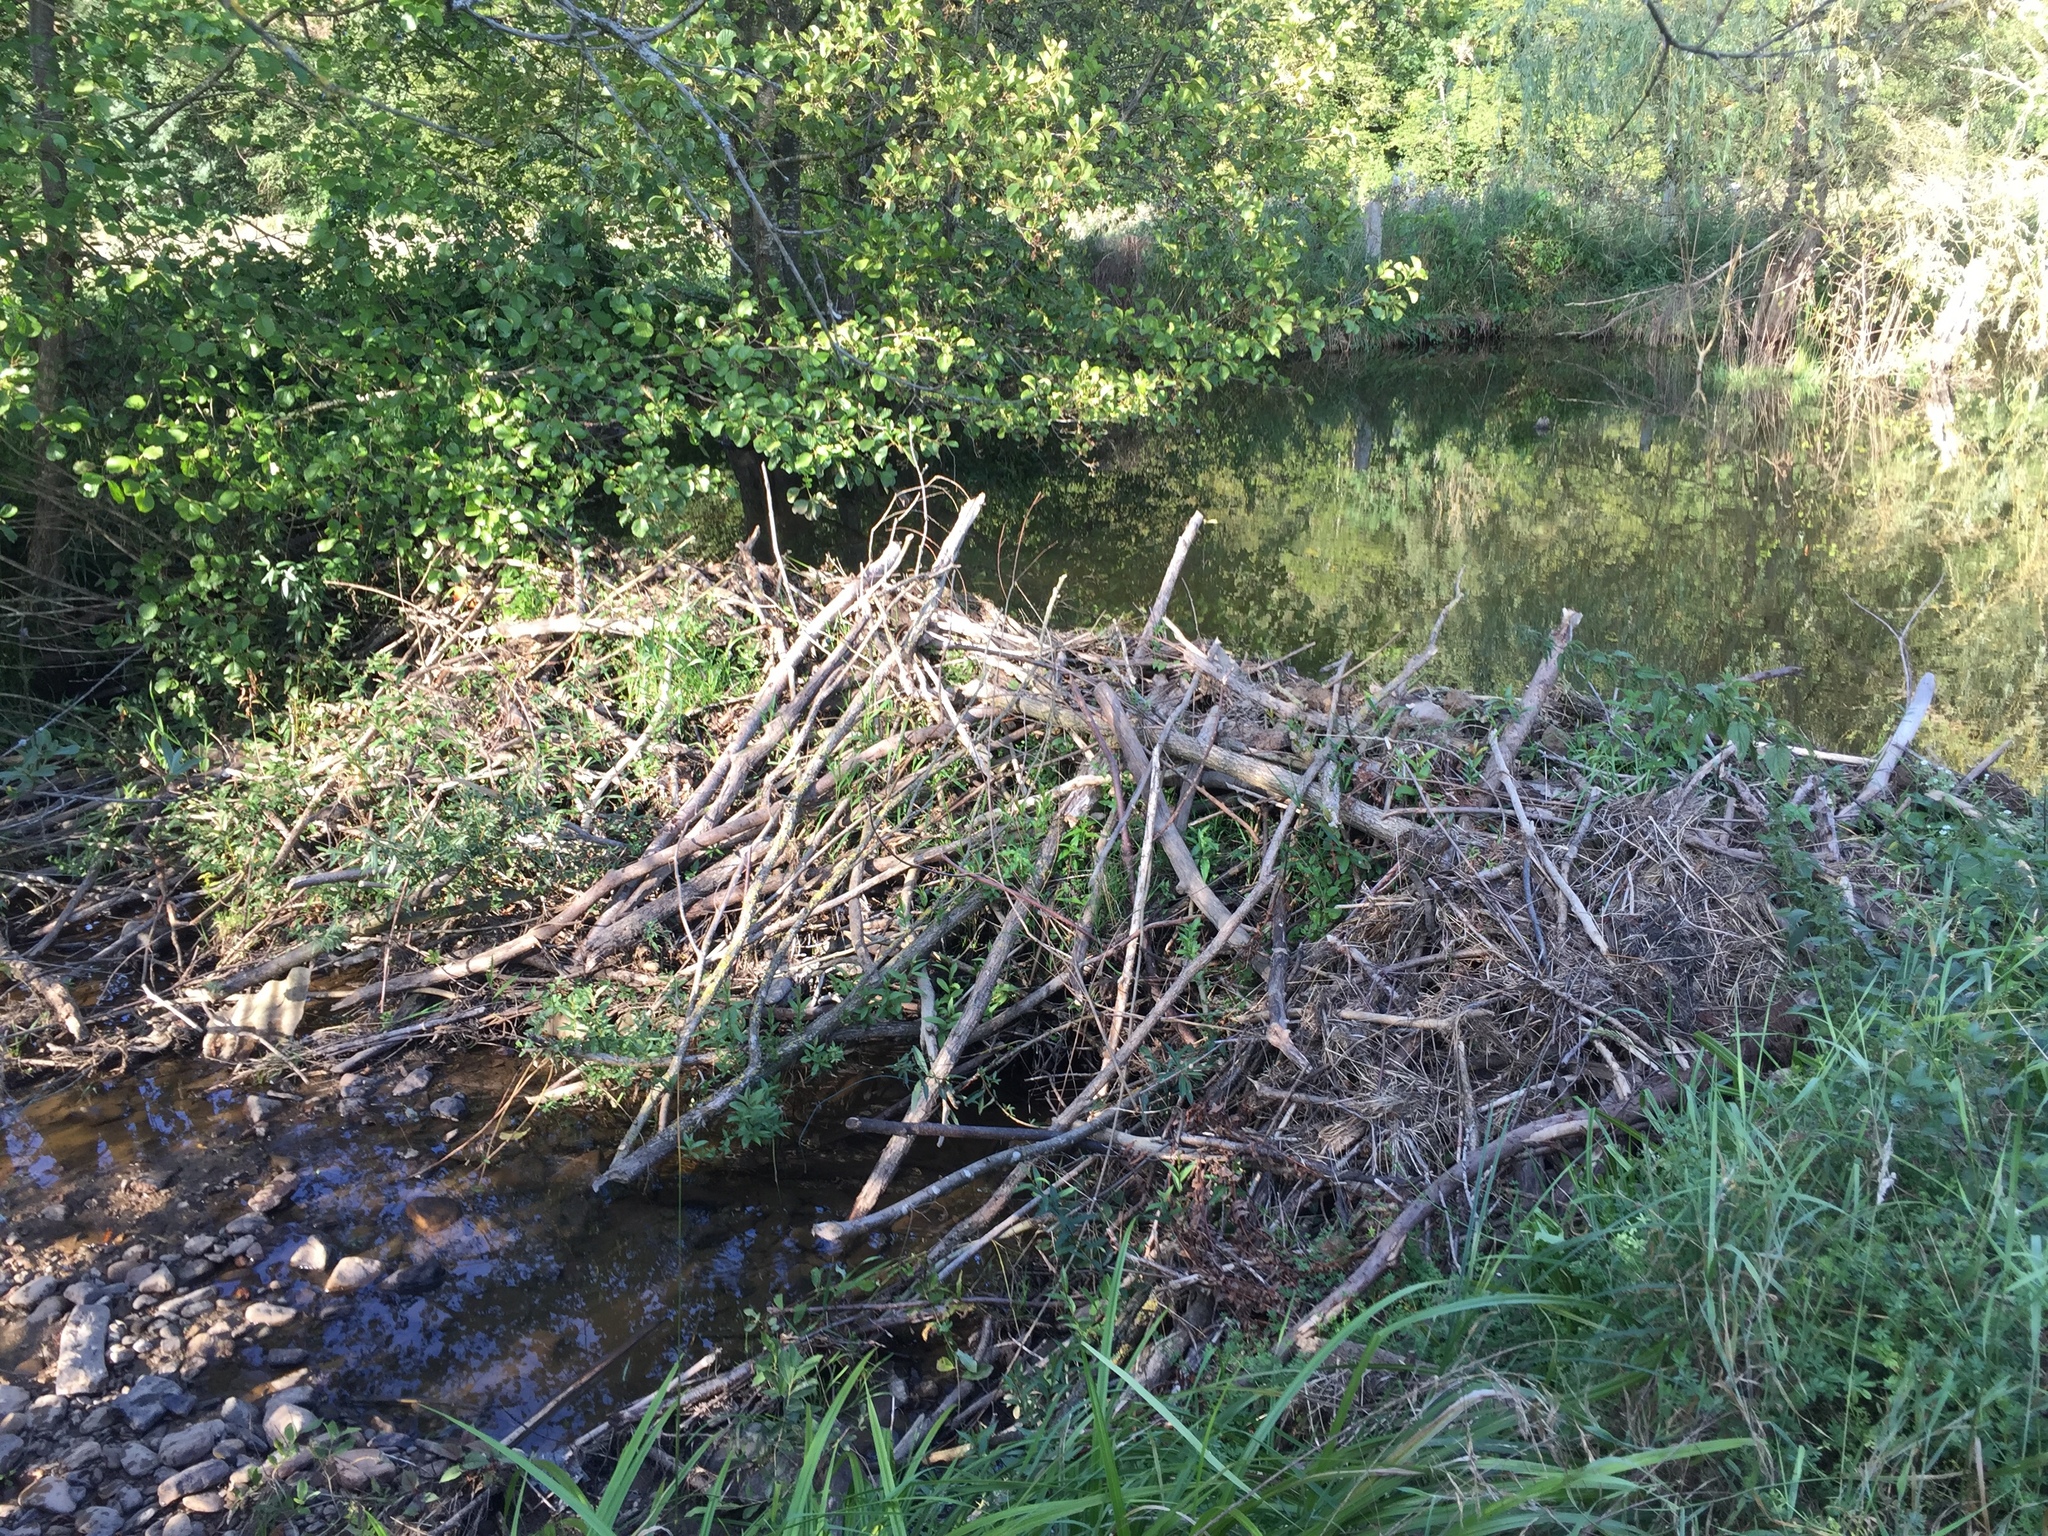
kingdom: Animalia
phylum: Chordata
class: Mammalia
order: Rodentia
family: Castoridae
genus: Castor
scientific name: Castor fiber
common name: Eurasian beaver
